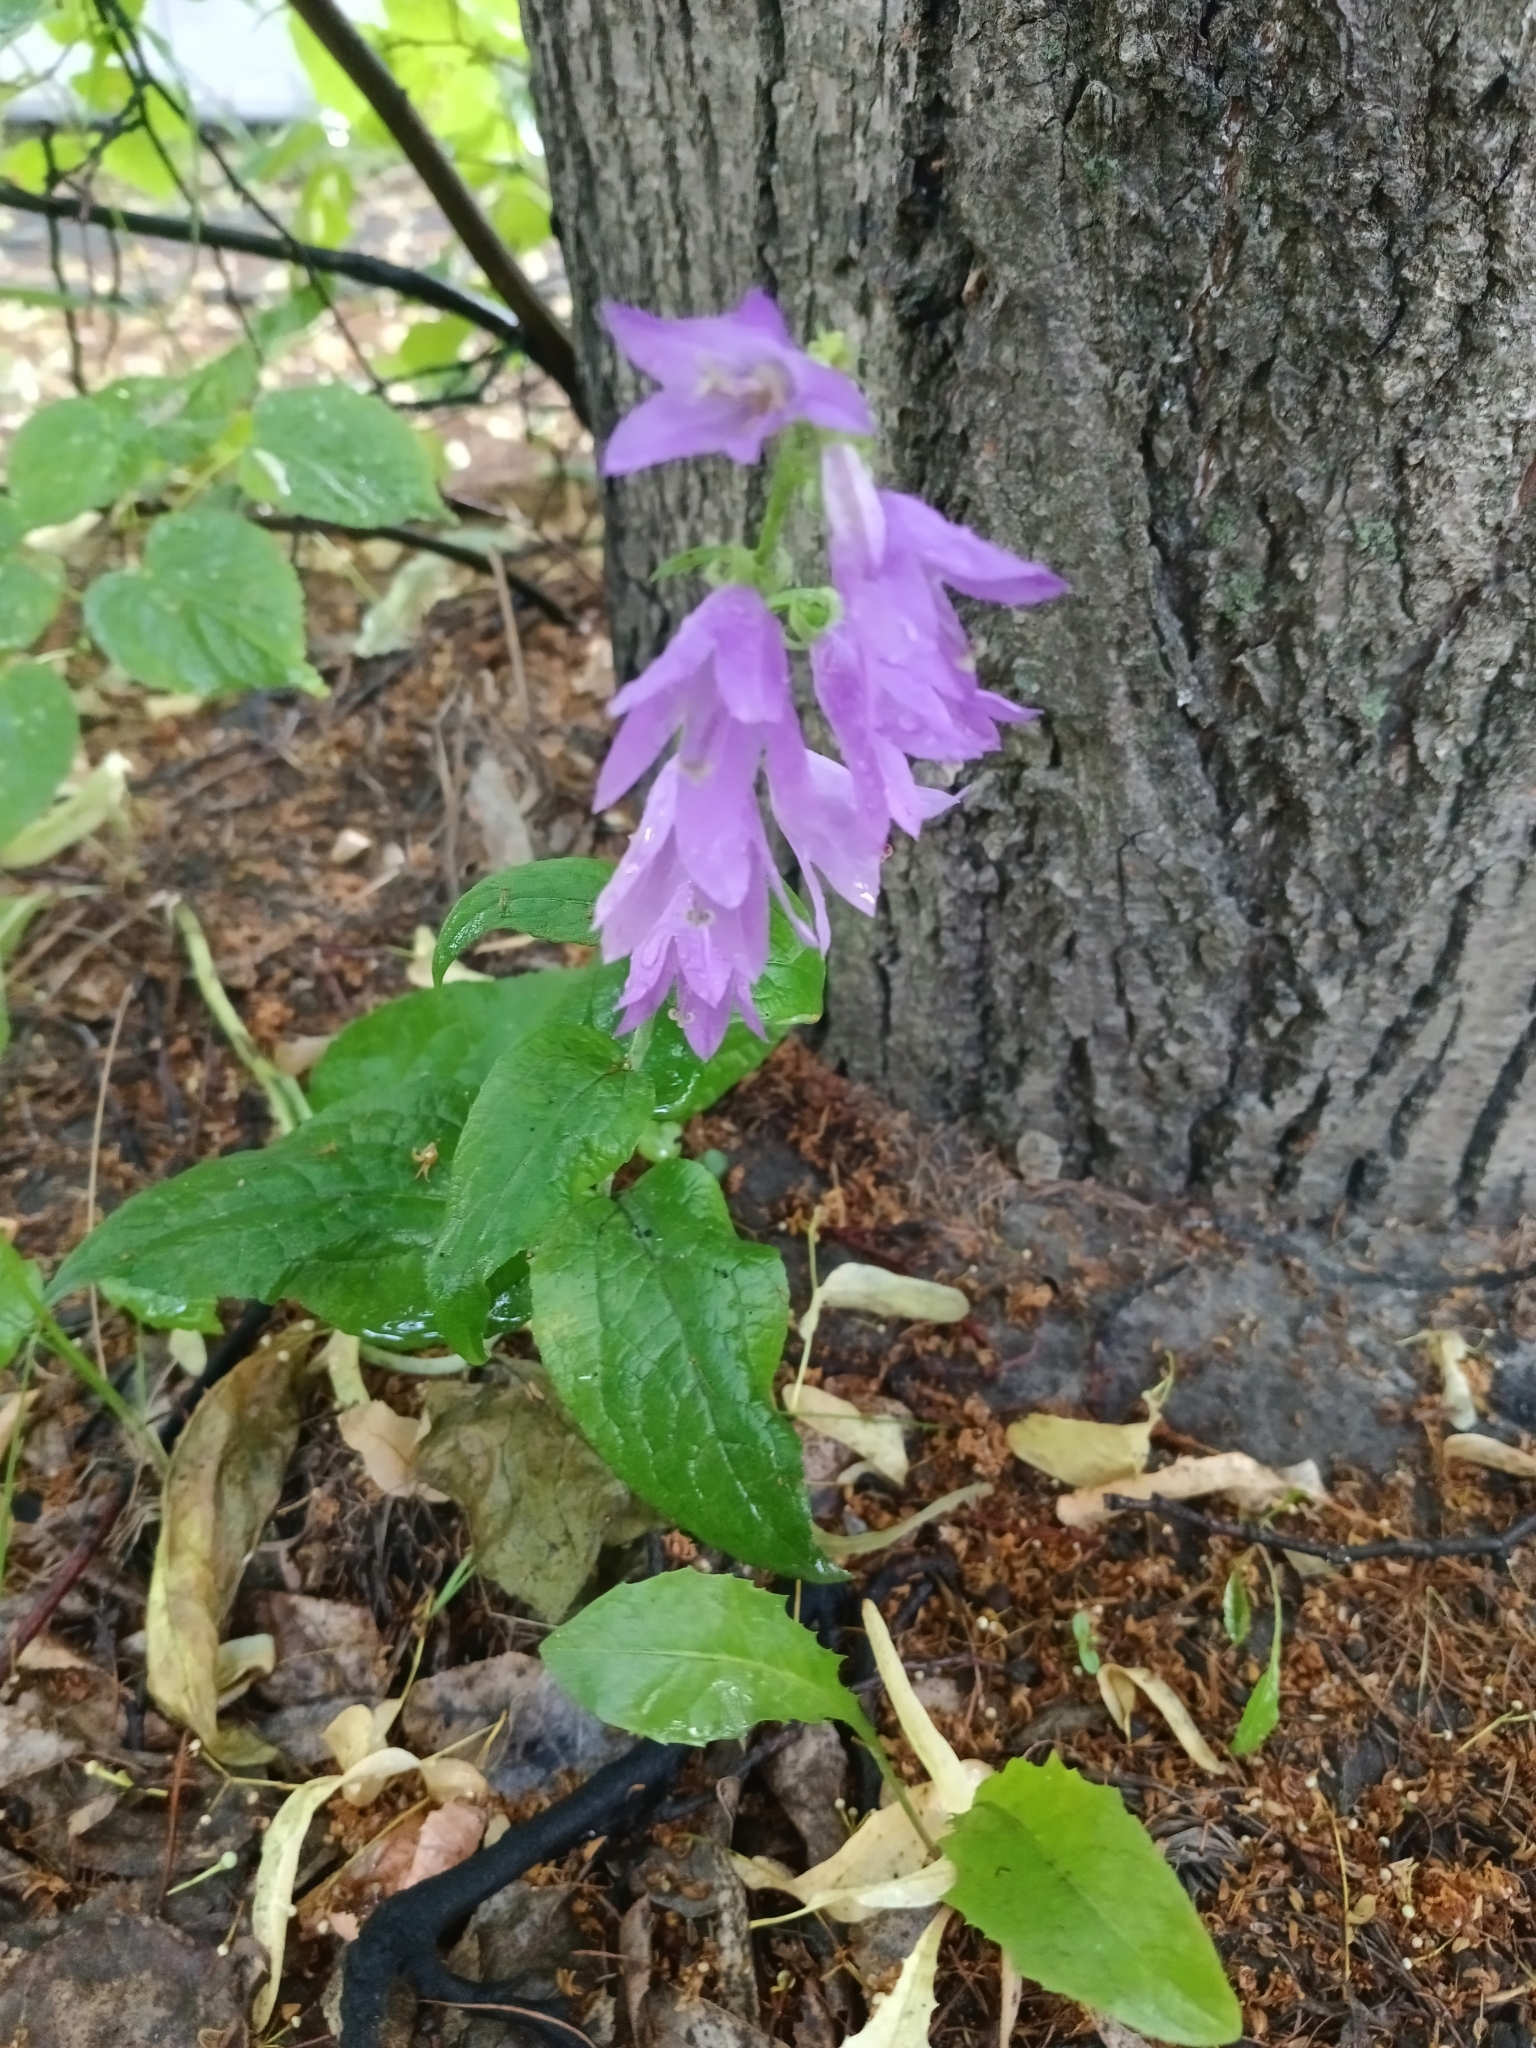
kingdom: Plantae
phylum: Tracheophyta
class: Magnoliopsida
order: Asterales
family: Campanulaceae
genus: Campanula
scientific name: Campanula rapunculoides
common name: Creeping bellflower
